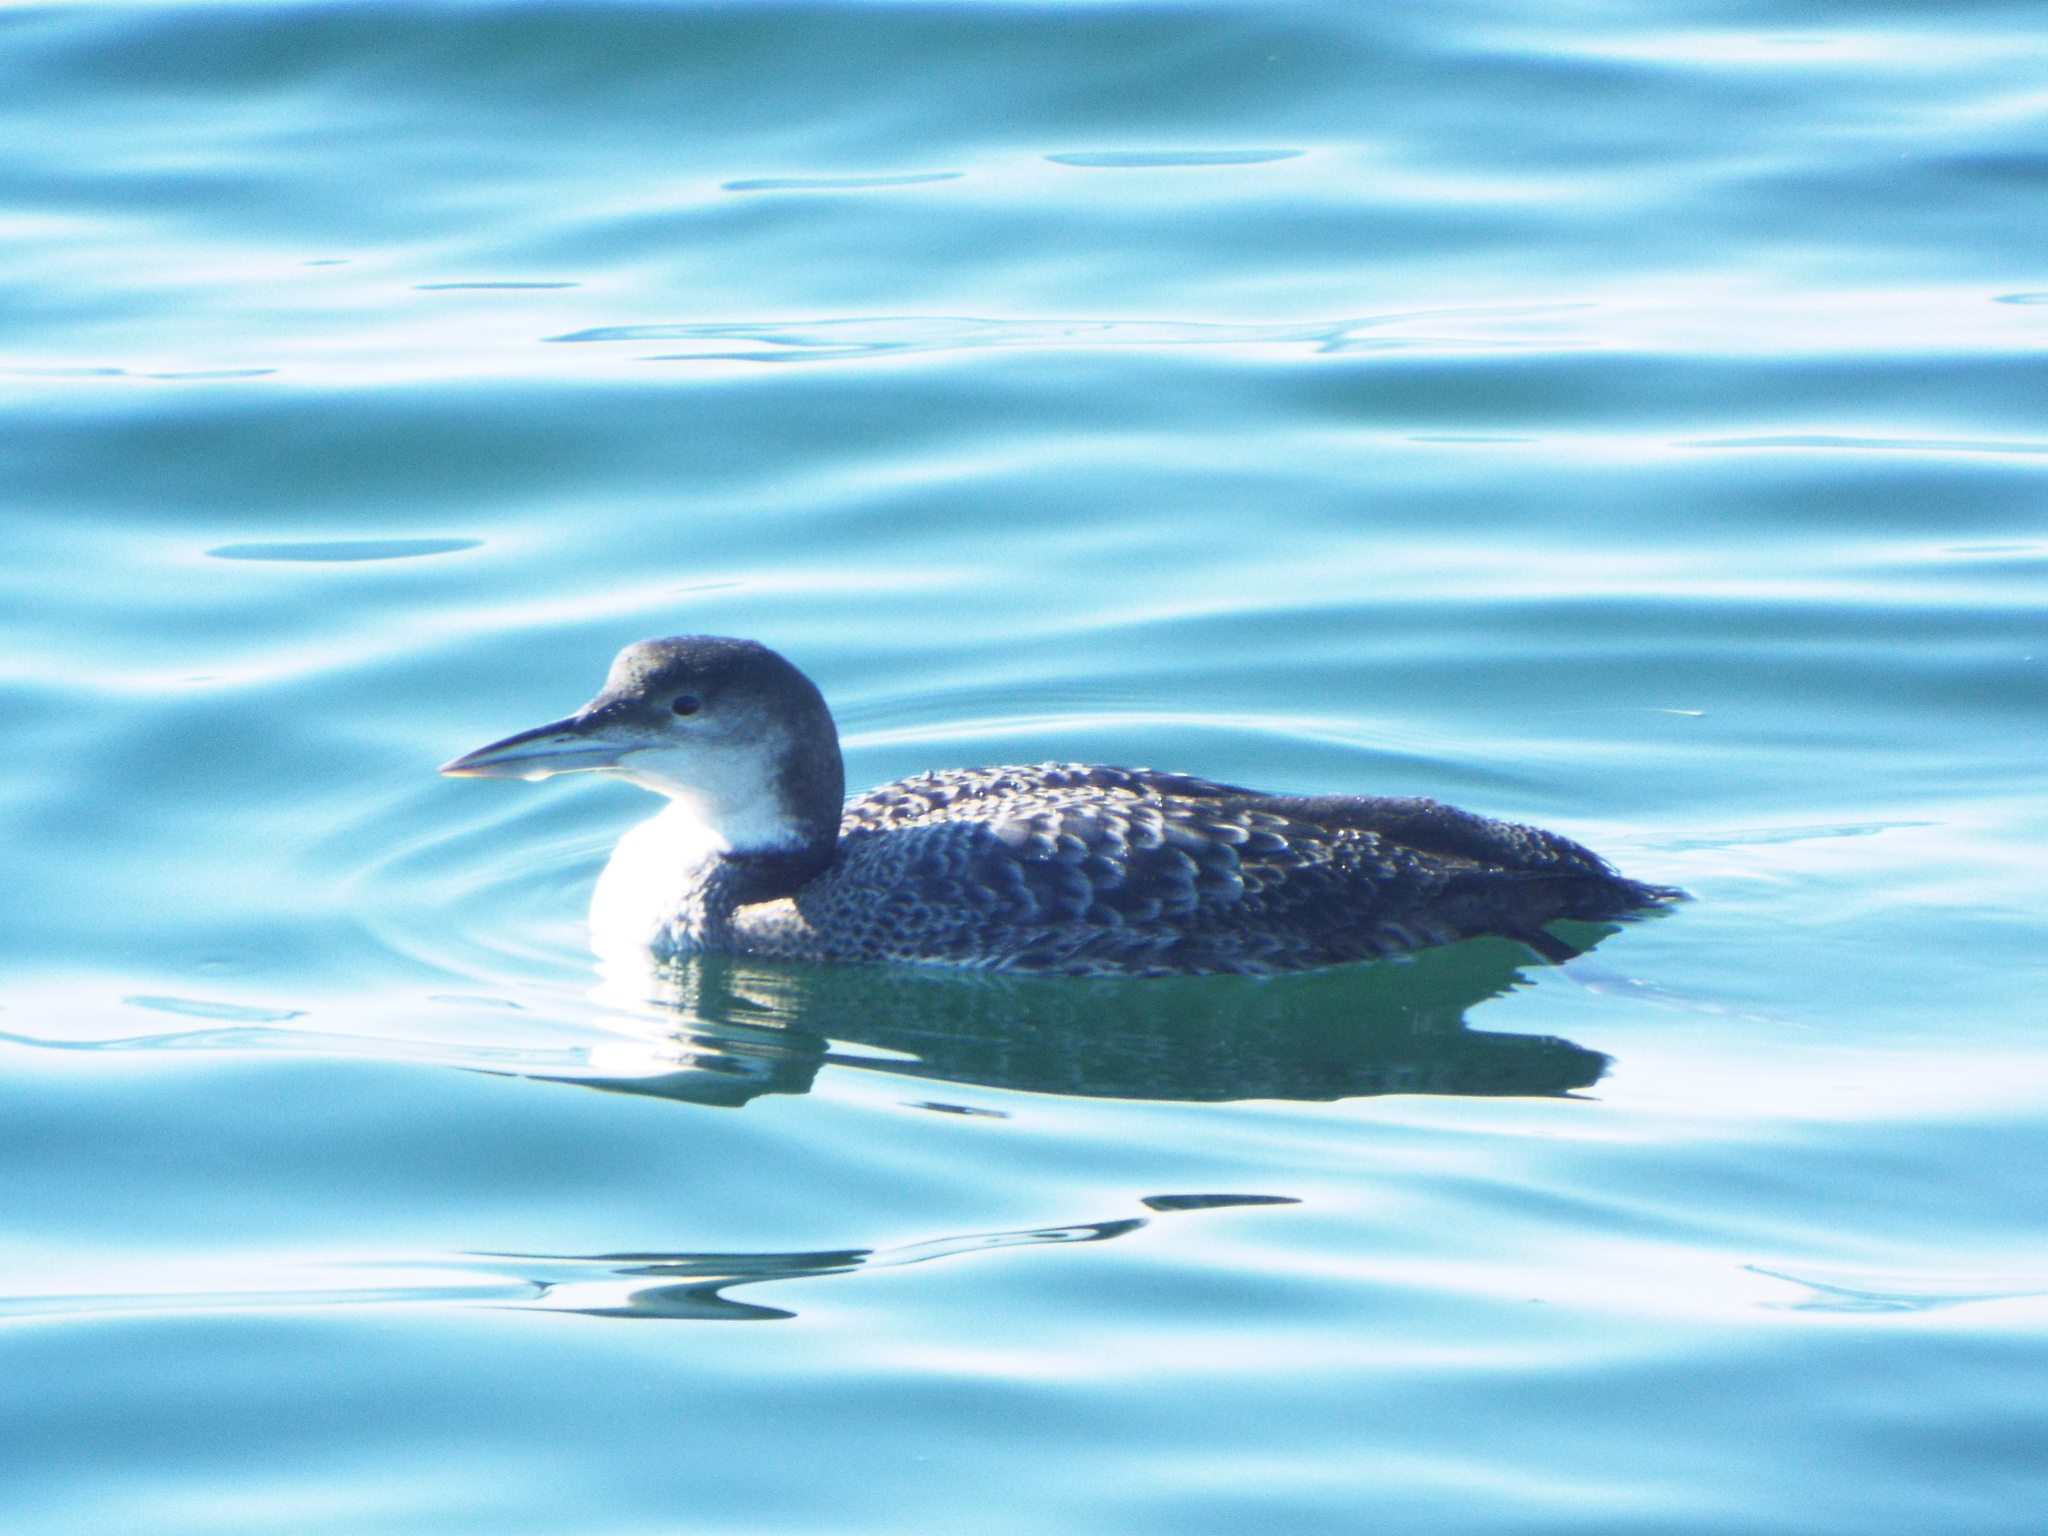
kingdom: Animalia
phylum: Chordata
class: Aves
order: Gaviiformes
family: Gaviidae
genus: Gavia
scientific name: Gavia immer
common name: Common loon
